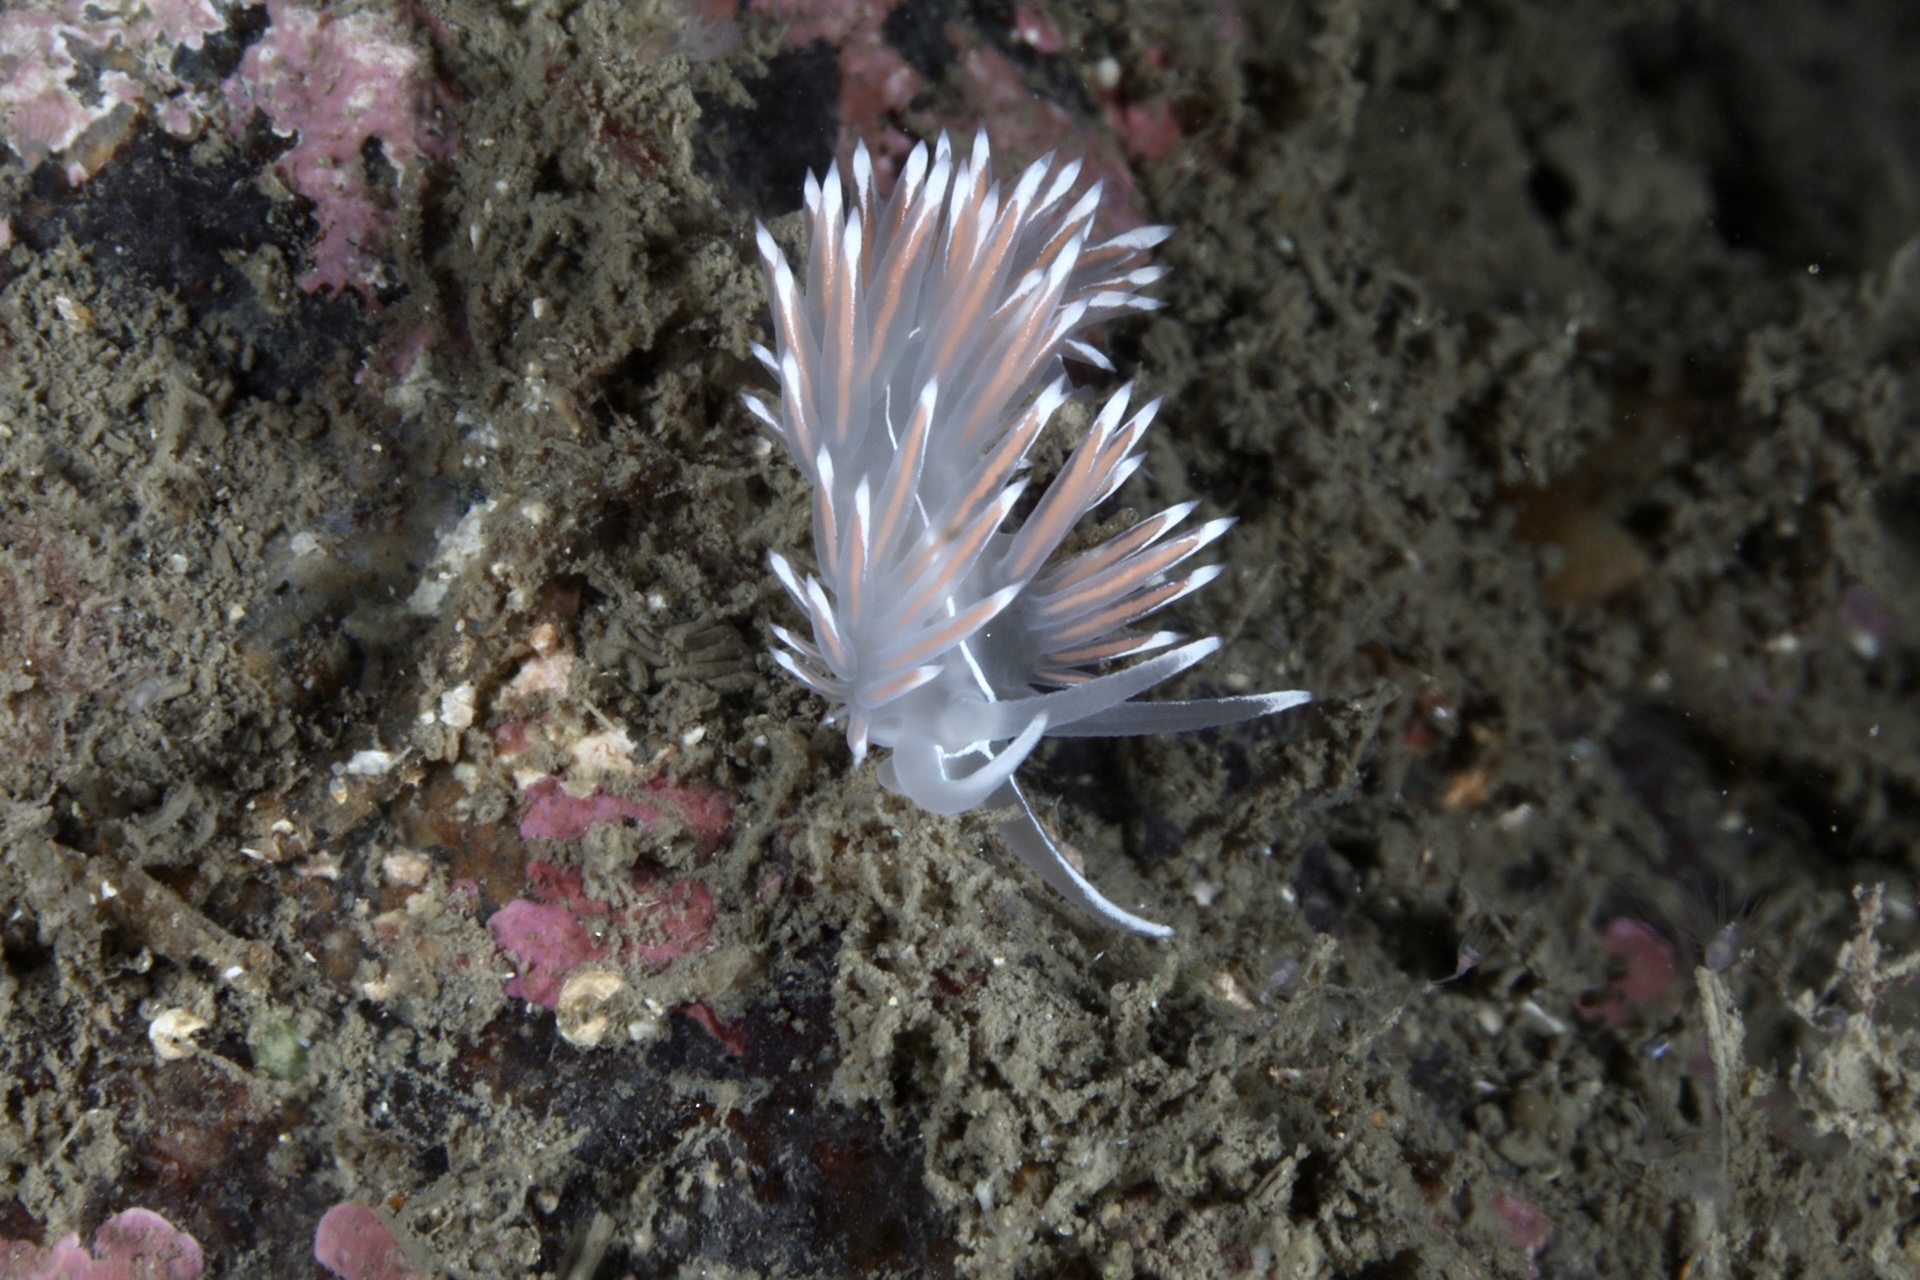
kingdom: Animalia
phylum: Mollusca
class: Gastropoda
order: Nudibranchia
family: Coryphellidae
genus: Coryphella
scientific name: Coryphella lineata
